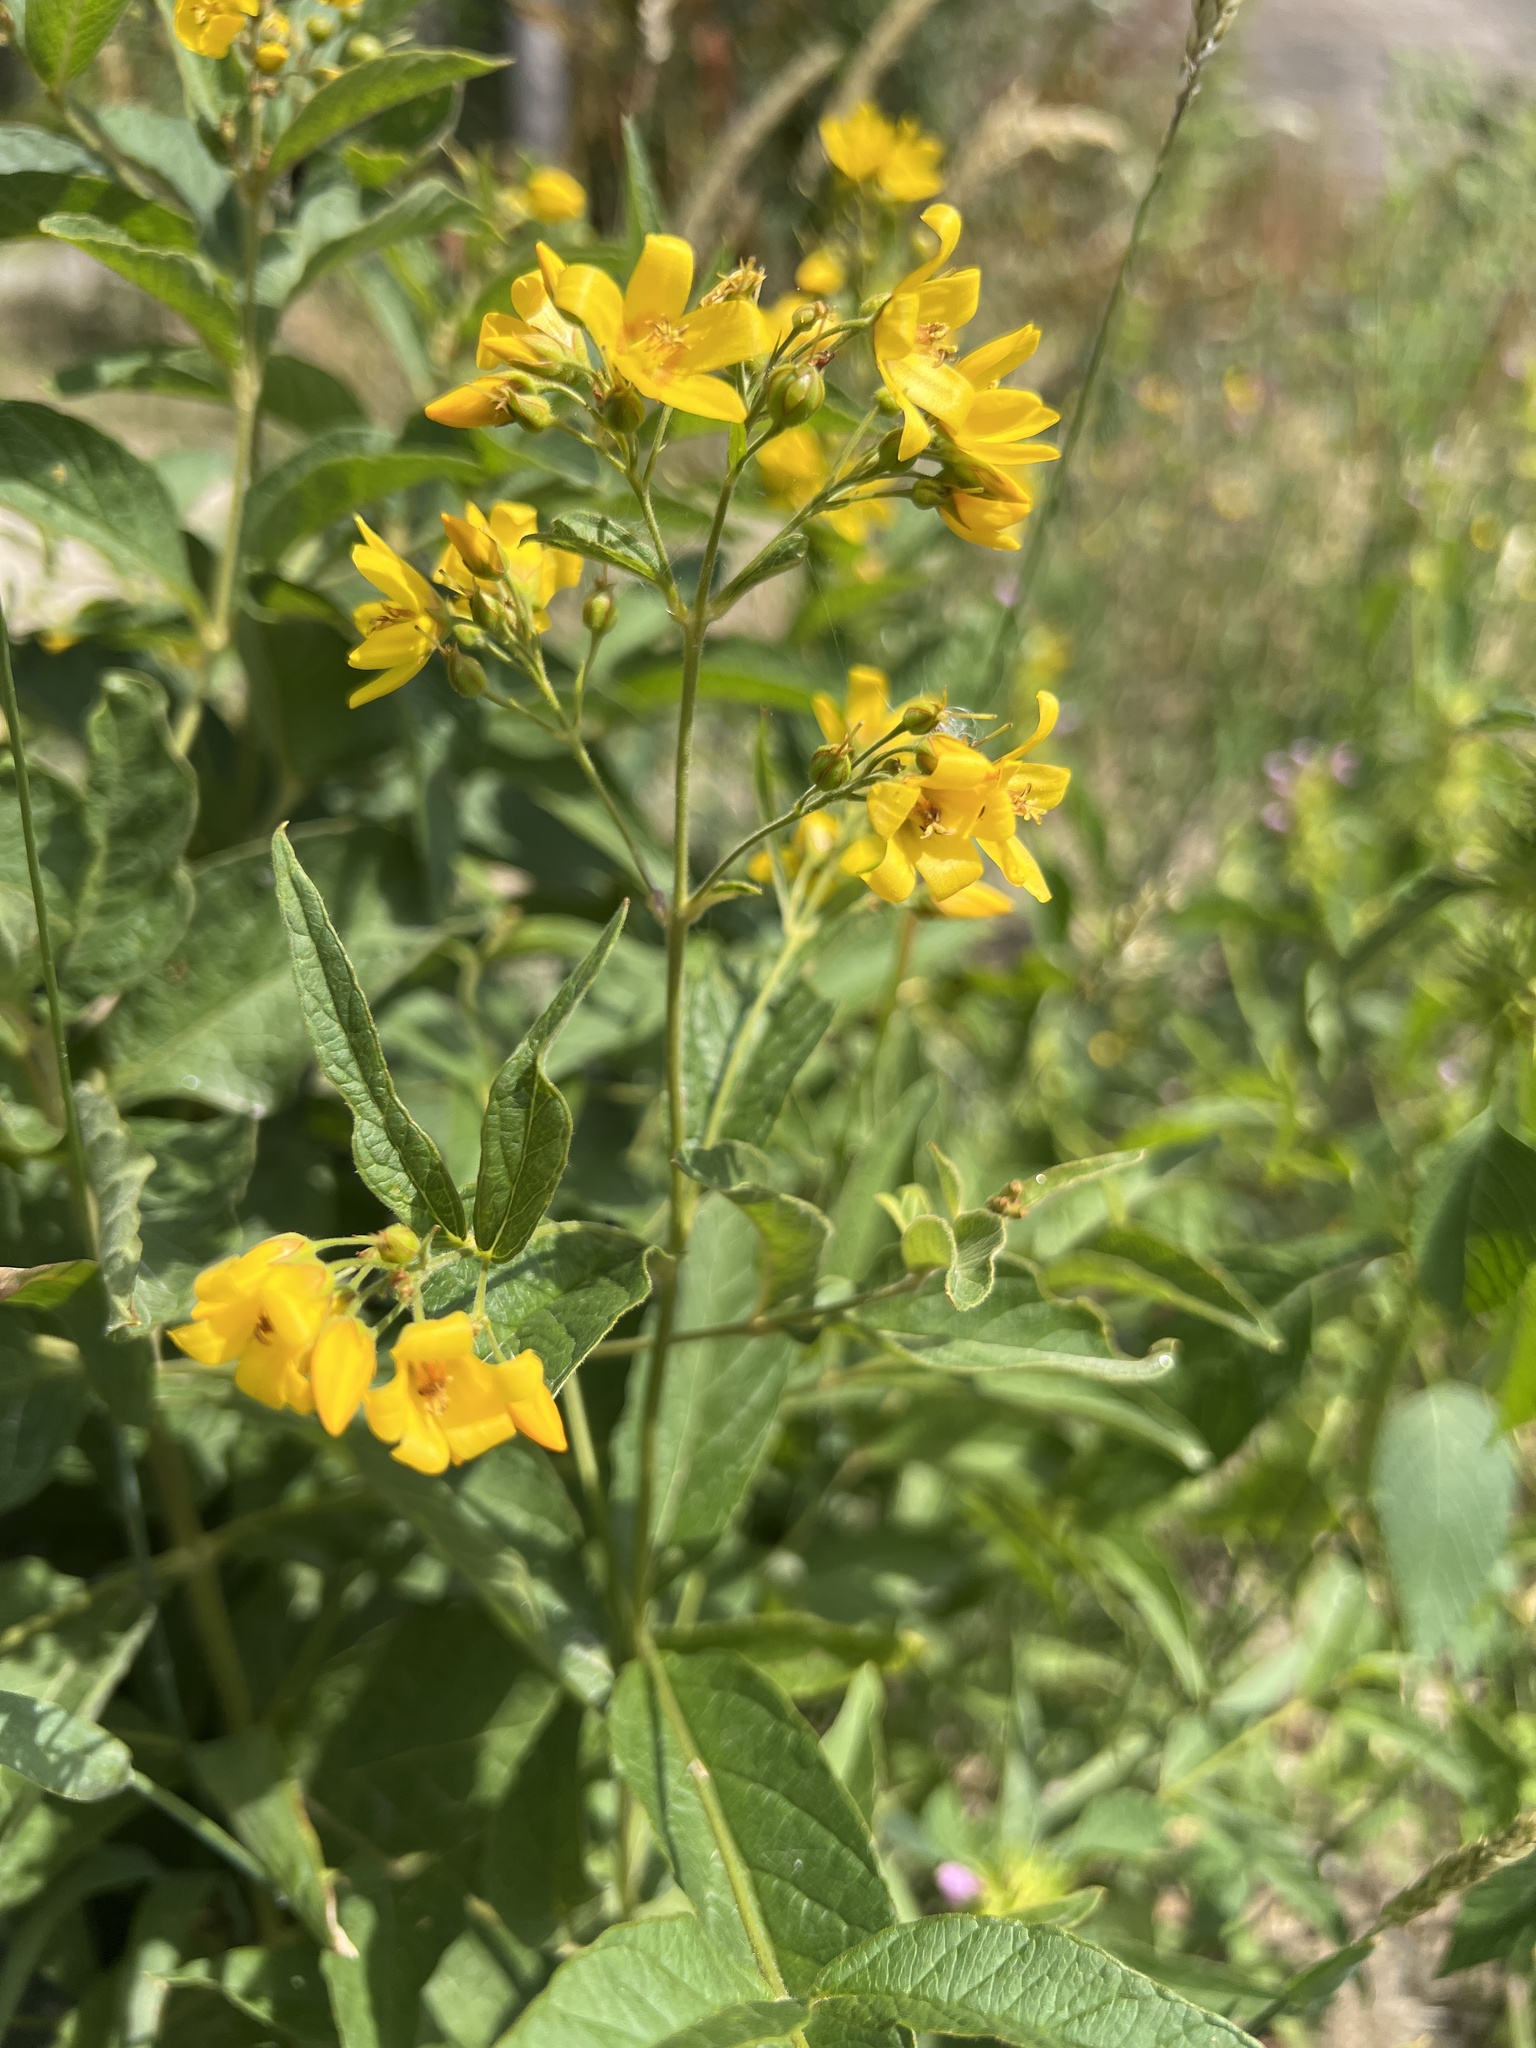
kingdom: Plantae
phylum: Tracheophyta
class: Magnoliopsida
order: Ericales
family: Primulaceae
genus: Lysimachia
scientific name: Lysimachia vulgaris
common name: Yellow loosestrife
